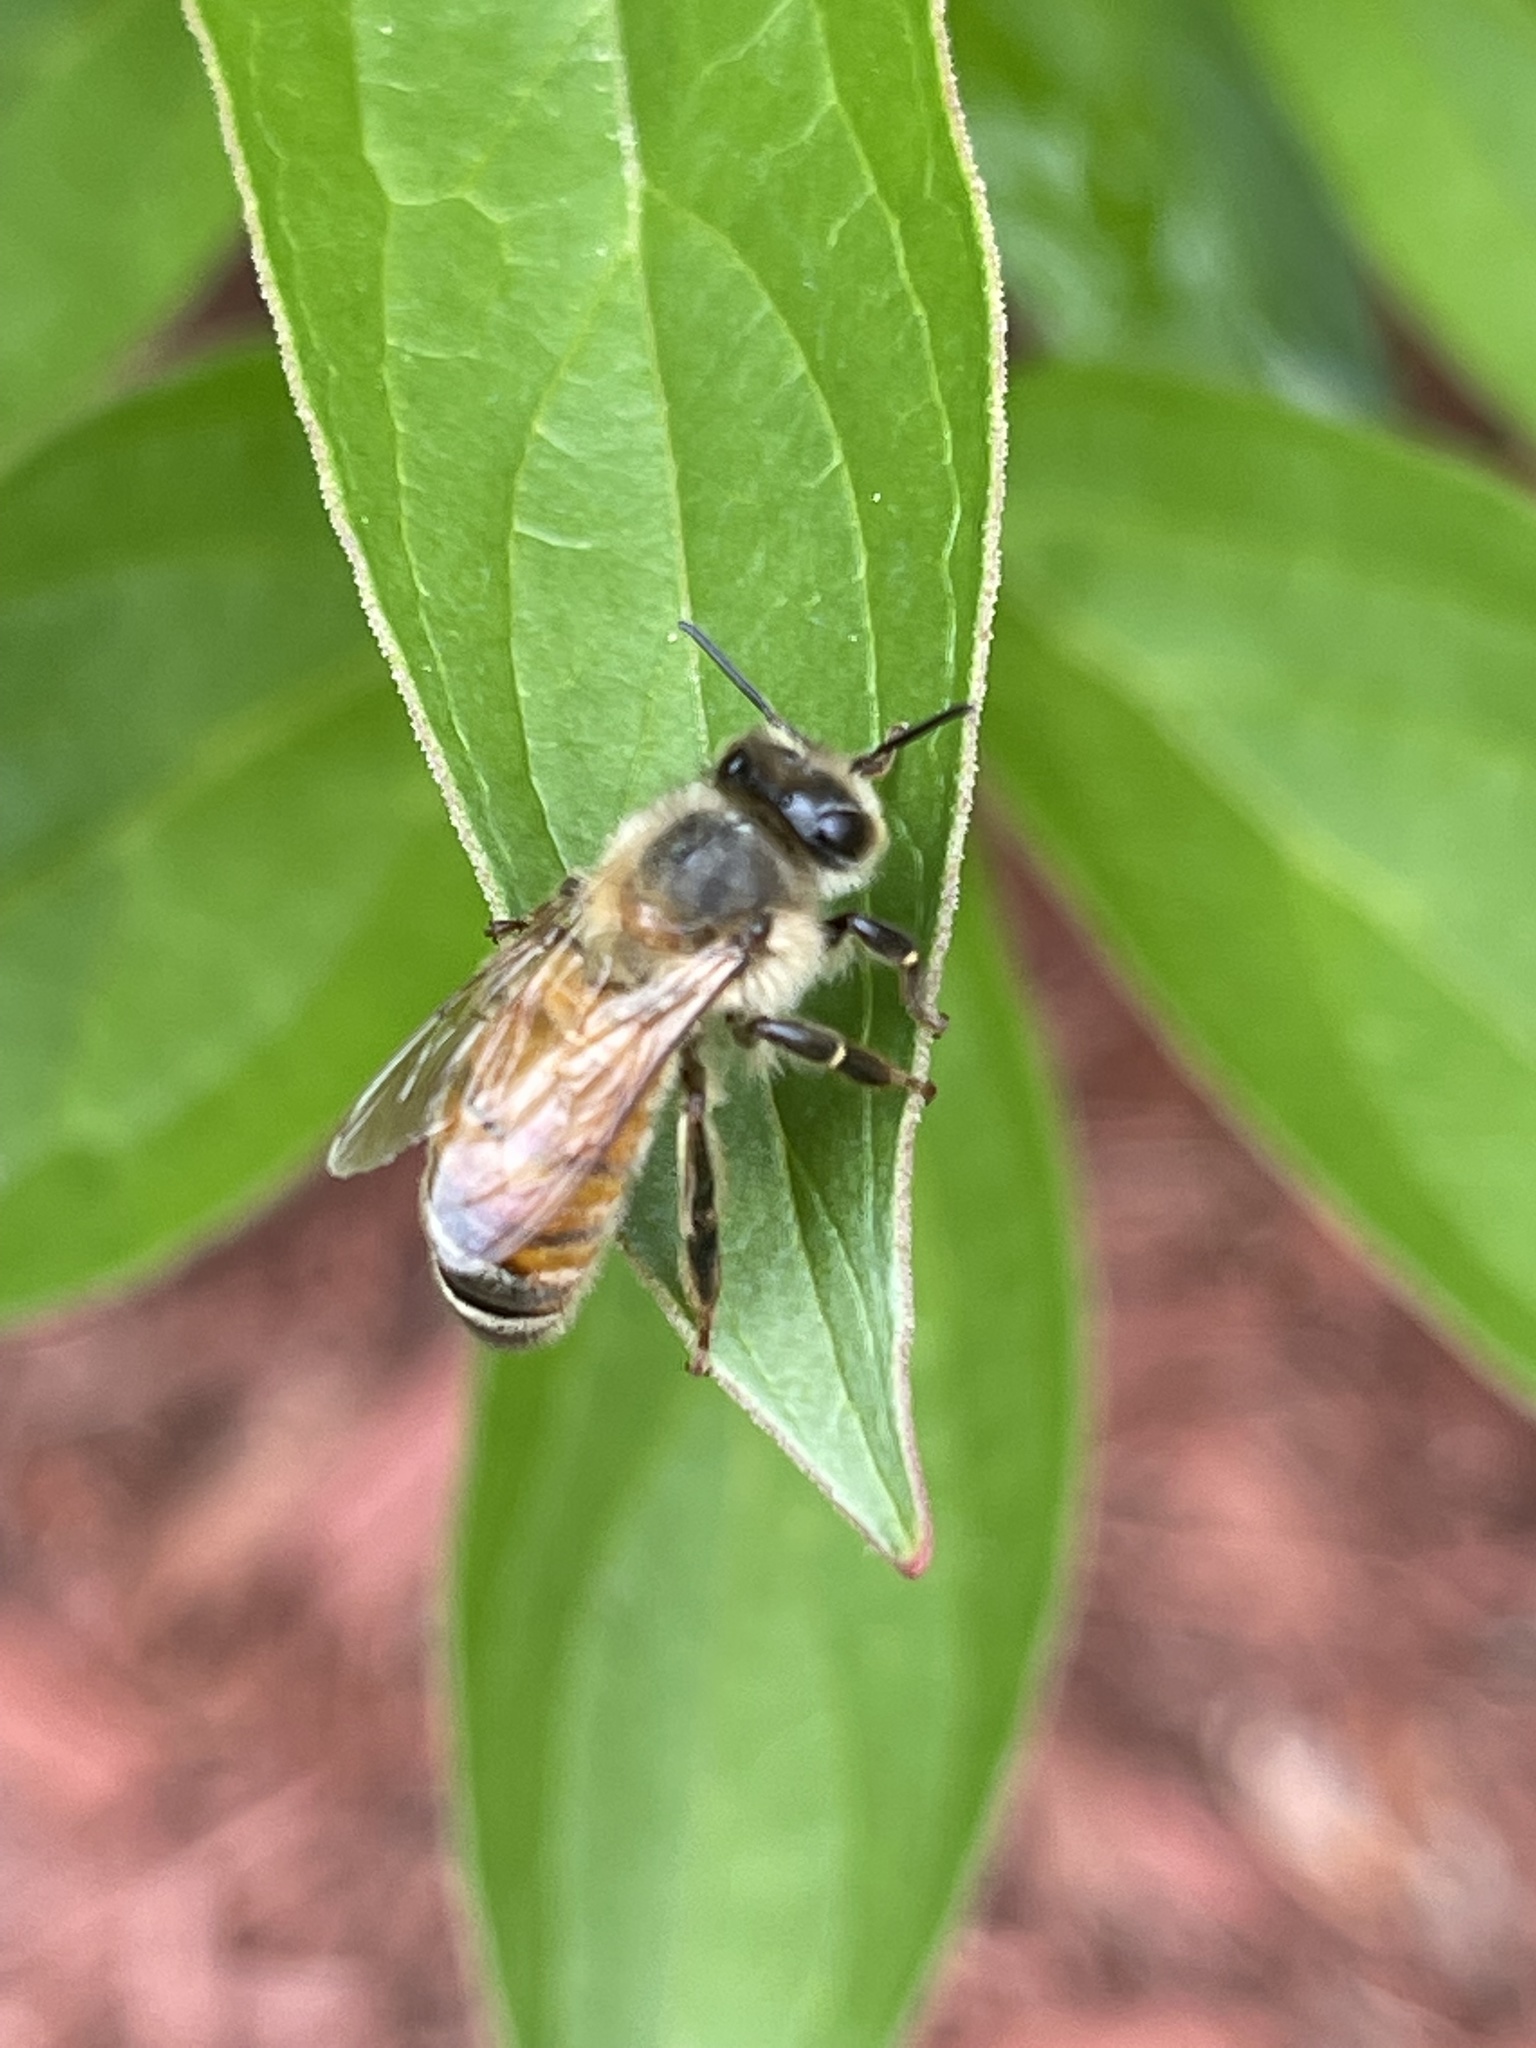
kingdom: Animalia
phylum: Arthropoda
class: Insecta
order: Hymenoptera
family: Apidae
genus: Apis
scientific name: Apis mellifera
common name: Honey bee
